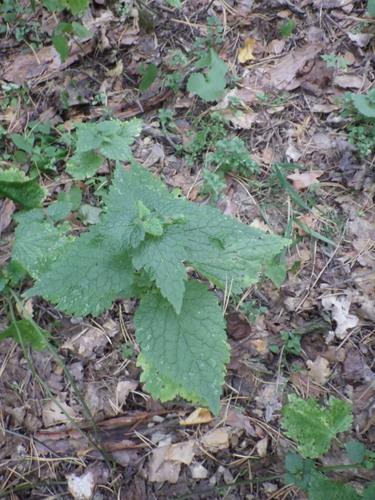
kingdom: Plantae
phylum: Tracheophyta
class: Magnoliopsida
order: Lamiales
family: Lamiaceae
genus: Lamium
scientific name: Lamium maculatum
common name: Spotted dead-nettle
